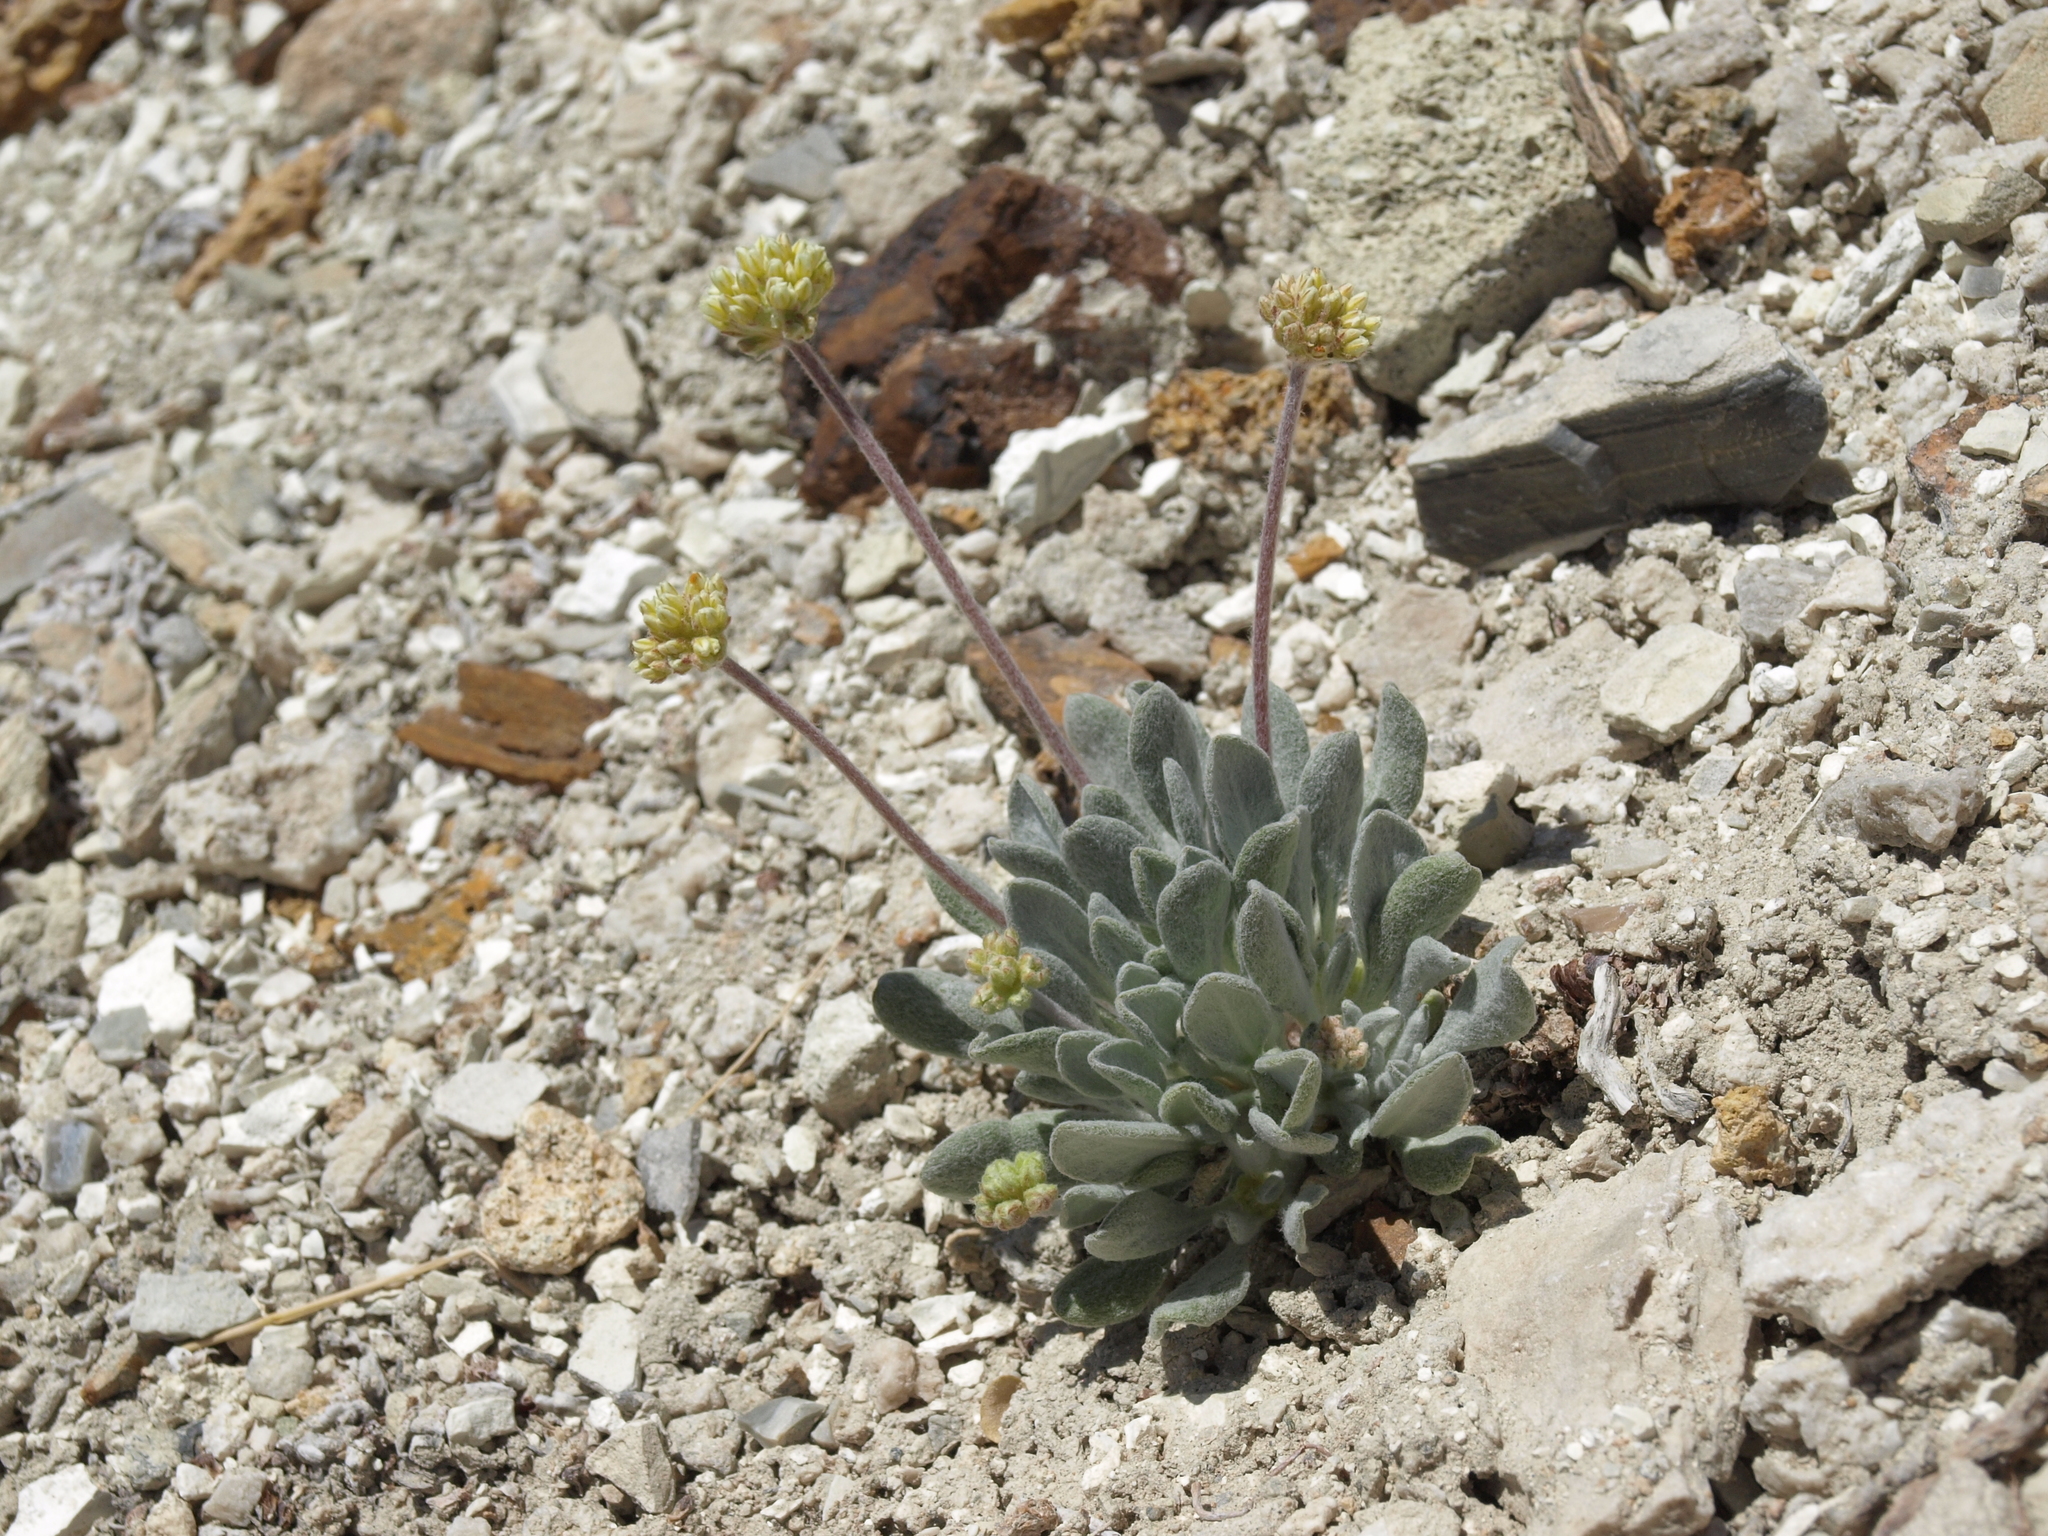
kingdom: Plantae
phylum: Tracheophyta
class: Magnoliopsida
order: Caryophyllales
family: Polygonaceae
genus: Eriogonum
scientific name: Eriogonum tiehmii
